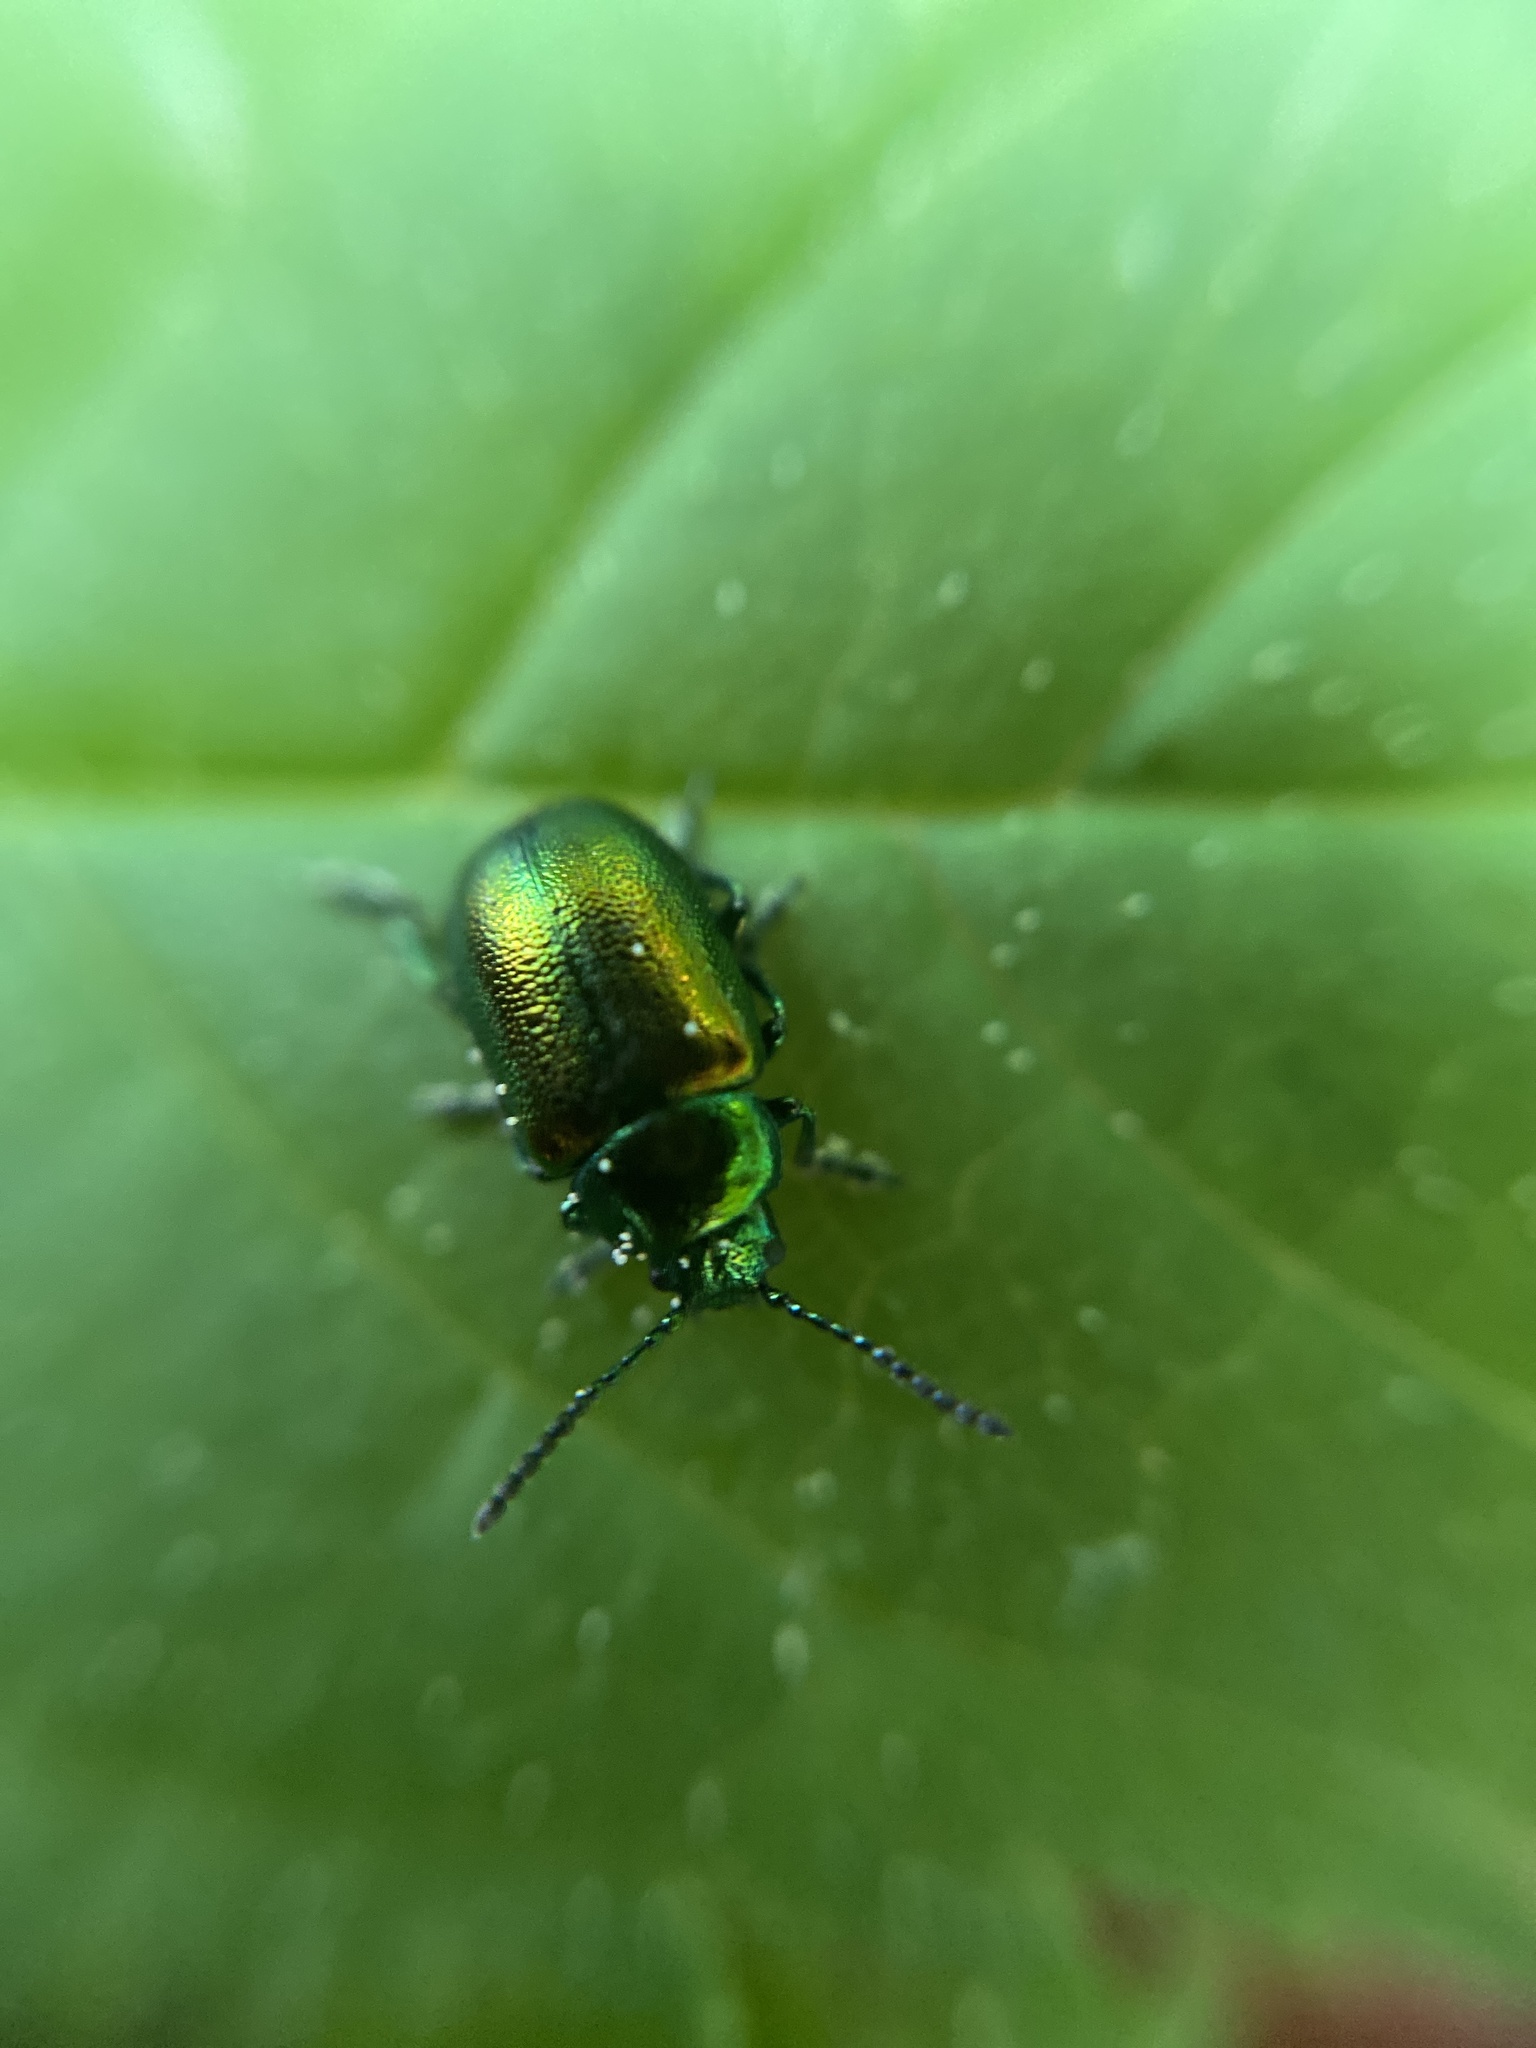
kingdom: Animalia
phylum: Arthropoda
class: Insecta
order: Coleoptera
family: Chrysomelidae
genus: Gastrophysa
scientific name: Gastrophysa viridula
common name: Green dock beetle
